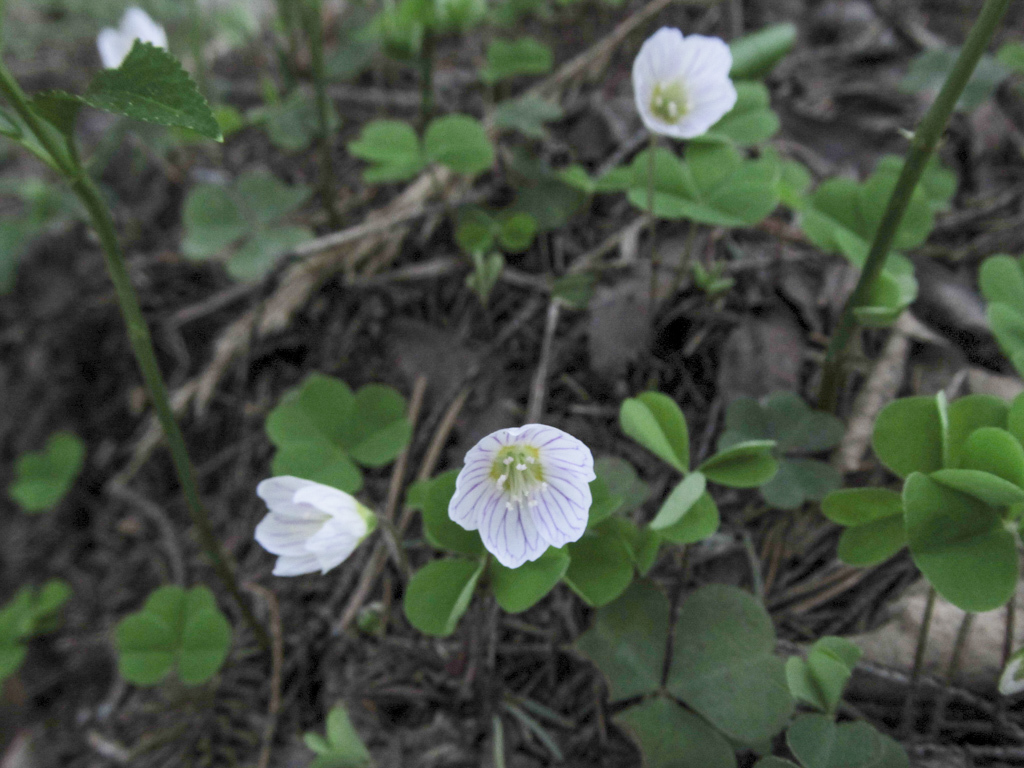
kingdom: Plantae
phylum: Tracheophyta
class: Magnoliopsida
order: Oxalidales
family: Oxalidaceae
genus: Oxalis
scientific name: Oxalis acetosella
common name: Wood-sorrel
